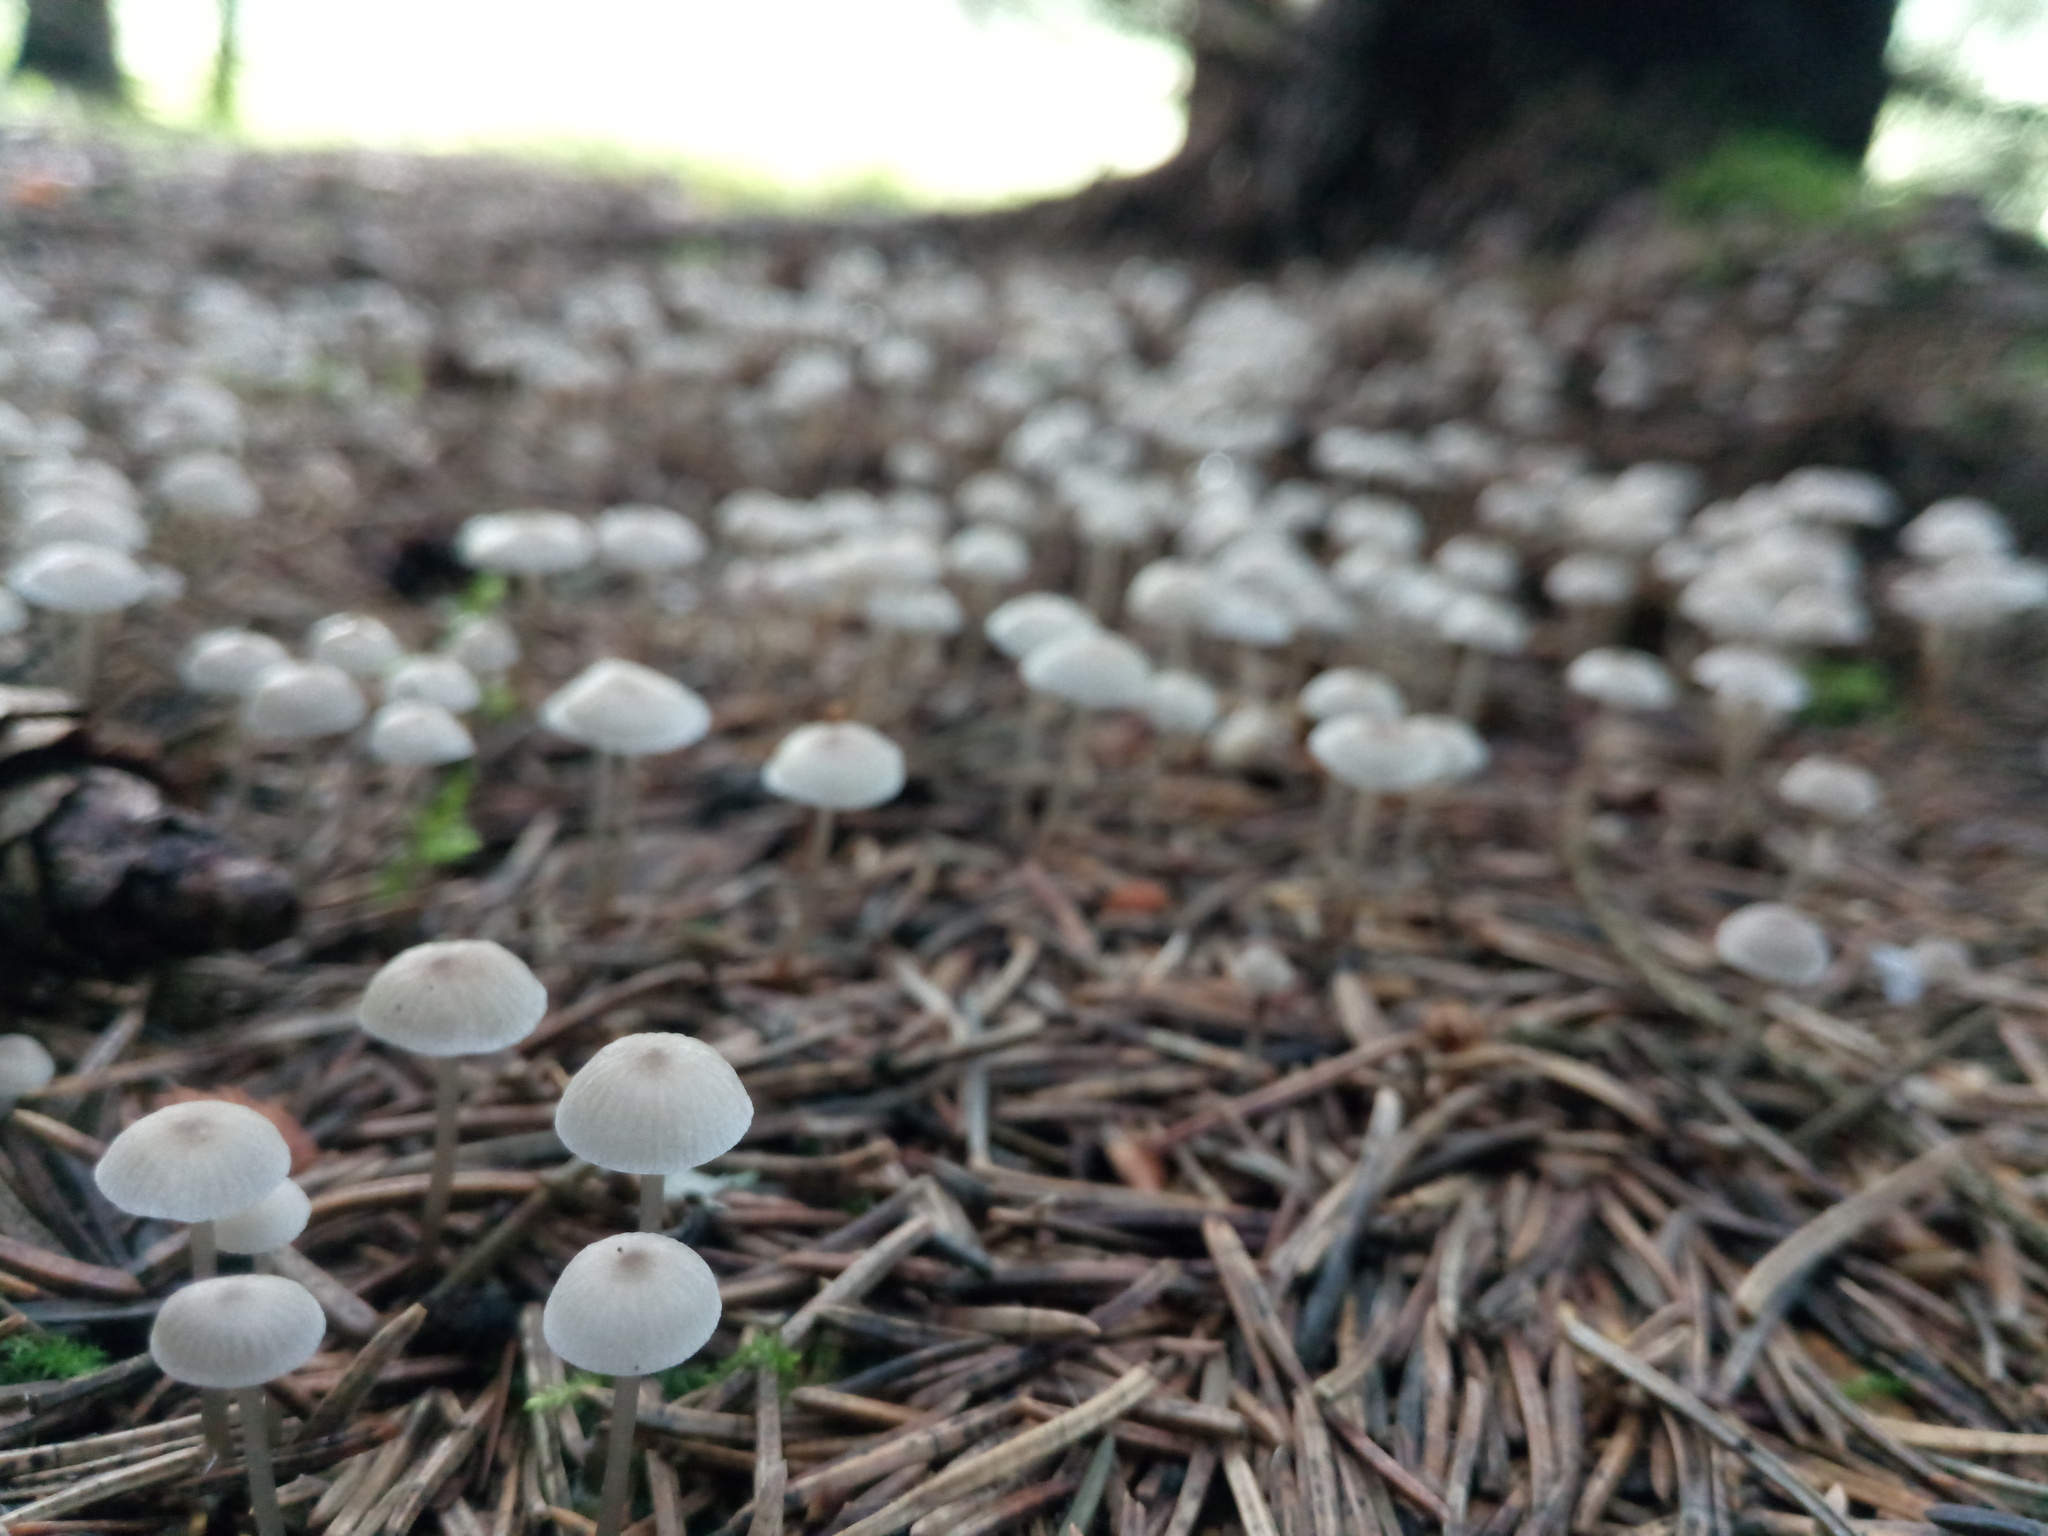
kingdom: Fungi
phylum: Basidiomycota
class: Agaricomycetes
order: Agaricales
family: Mycenaceae
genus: Mycena
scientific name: Mycena galopus
